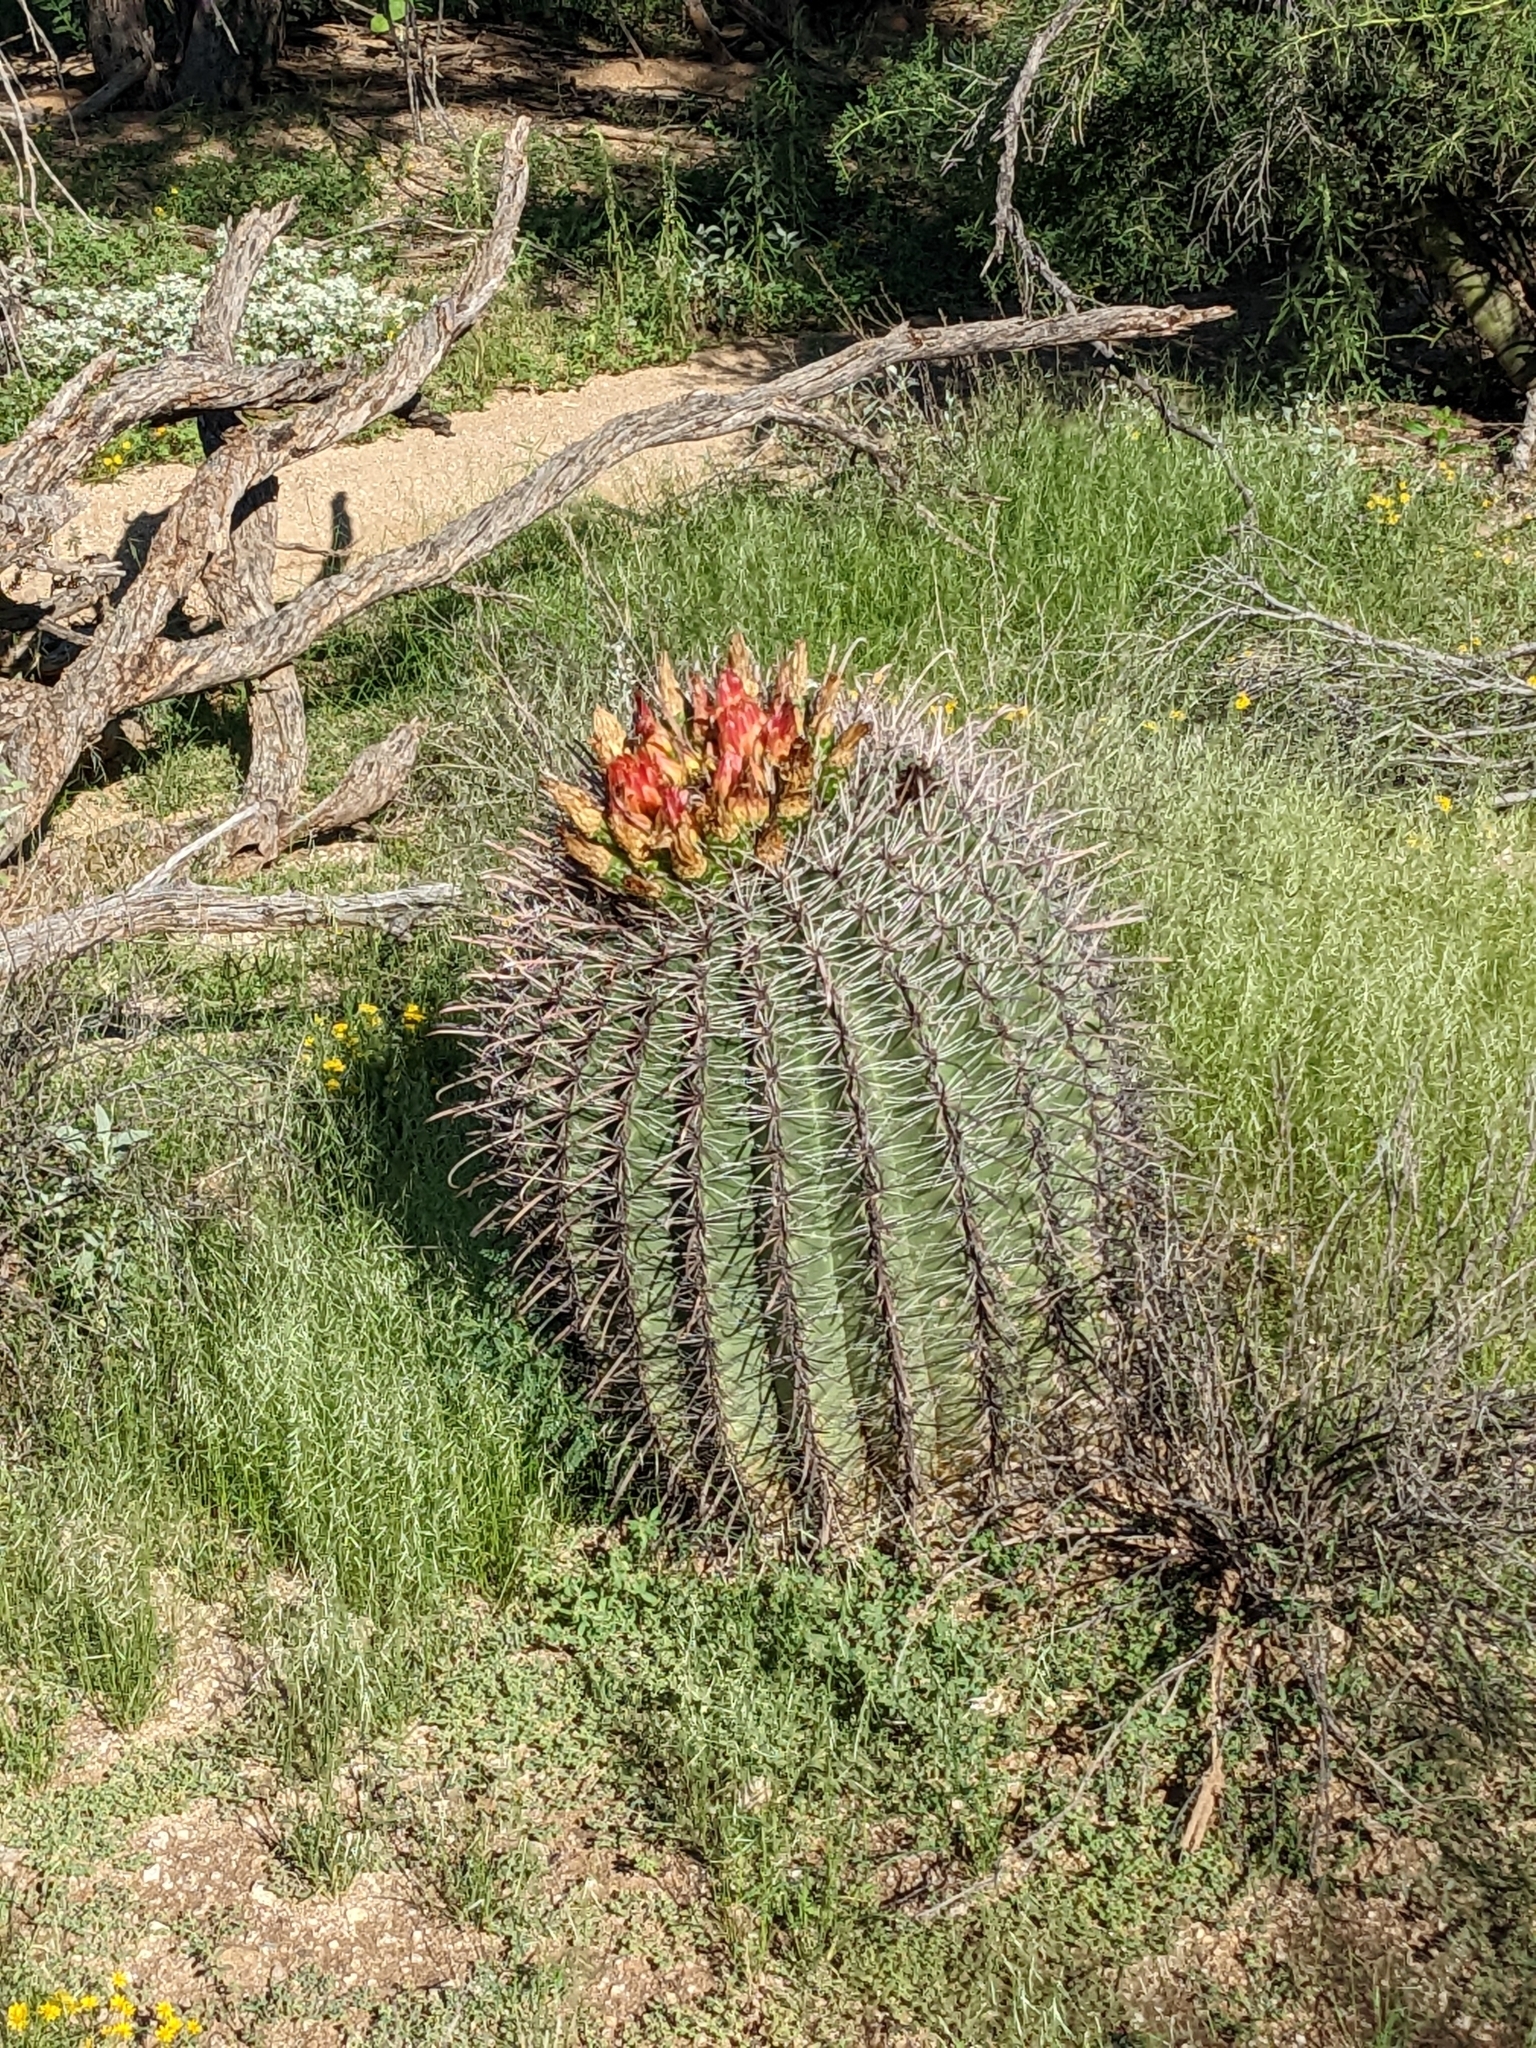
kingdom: Plantae
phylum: Tracheophyta
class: Magnoliopsida
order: Caryophyllales
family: Cactaceae
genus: Ferocactus
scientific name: Ferocactus wislizeni
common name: Candy barrel cactus
